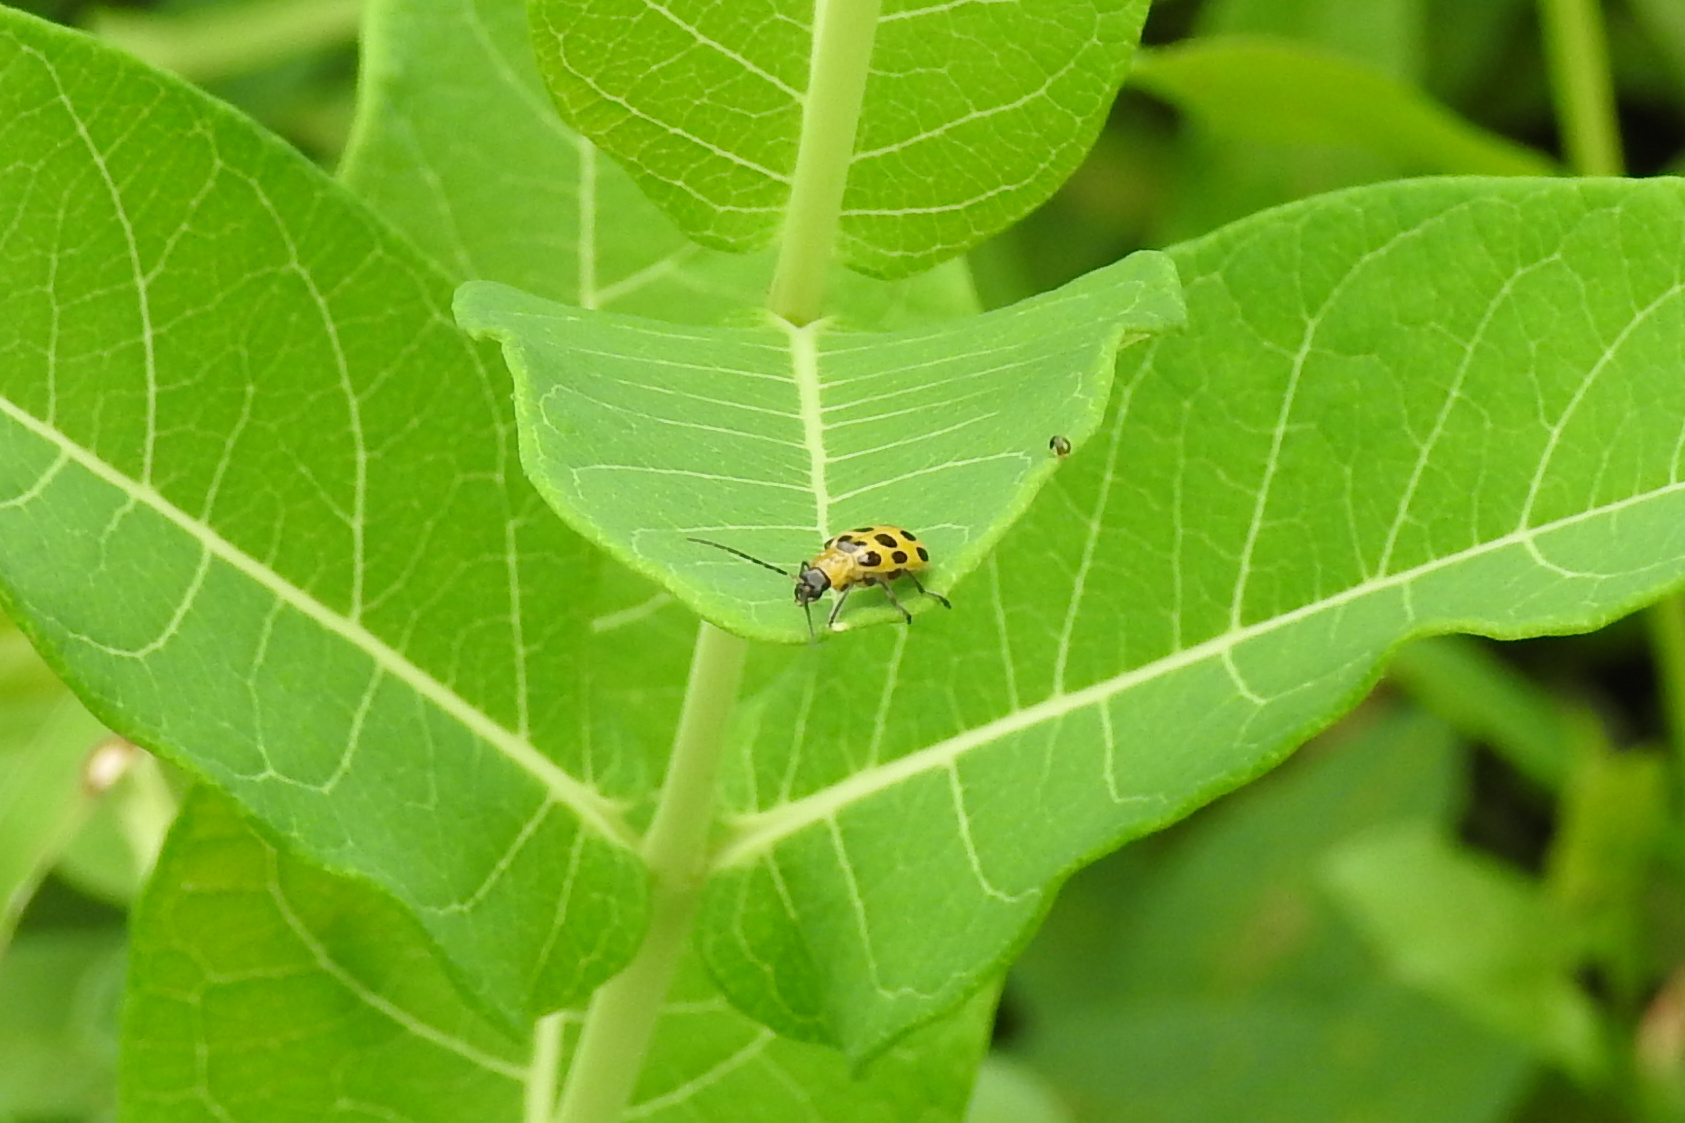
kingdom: Animalia
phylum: Arthropoda
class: Insecta
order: Coleoptera
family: Chrysomelidae
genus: Diabrotica
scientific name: Diabrotica undecimpunctata
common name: Spotted cucumber beetle
